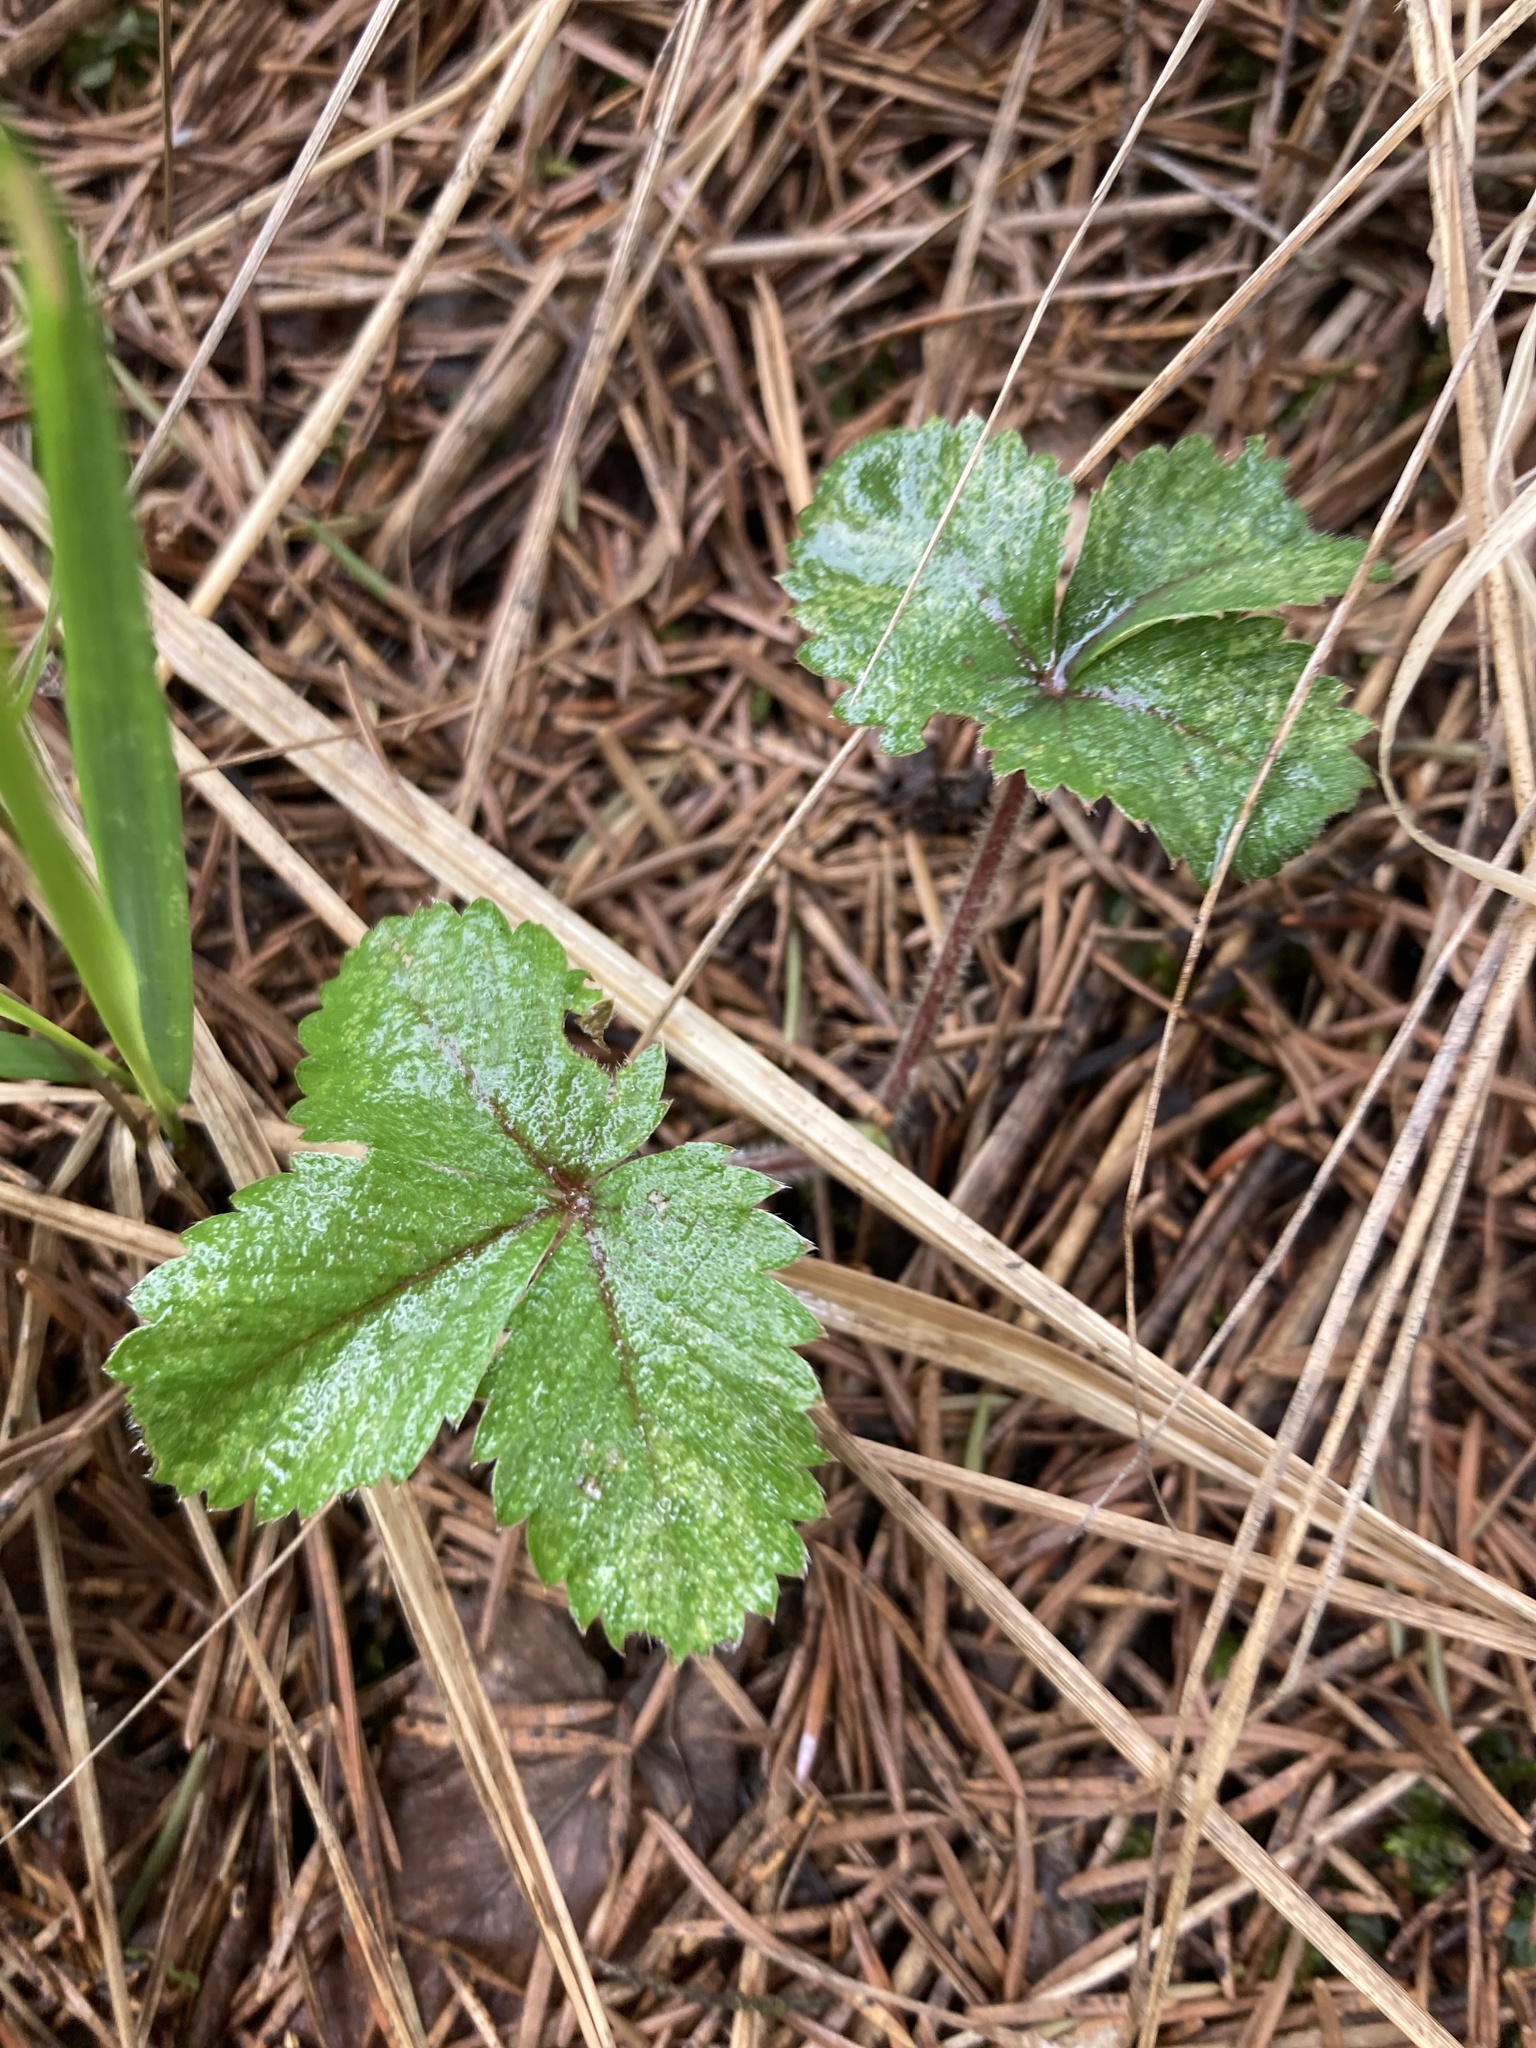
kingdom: Plantae
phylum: Tracheophyta
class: Magnoliopsida
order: Rosales
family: Rosaceae
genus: Fragaria
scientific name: Fragaria vesca
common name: Wild strawberry
